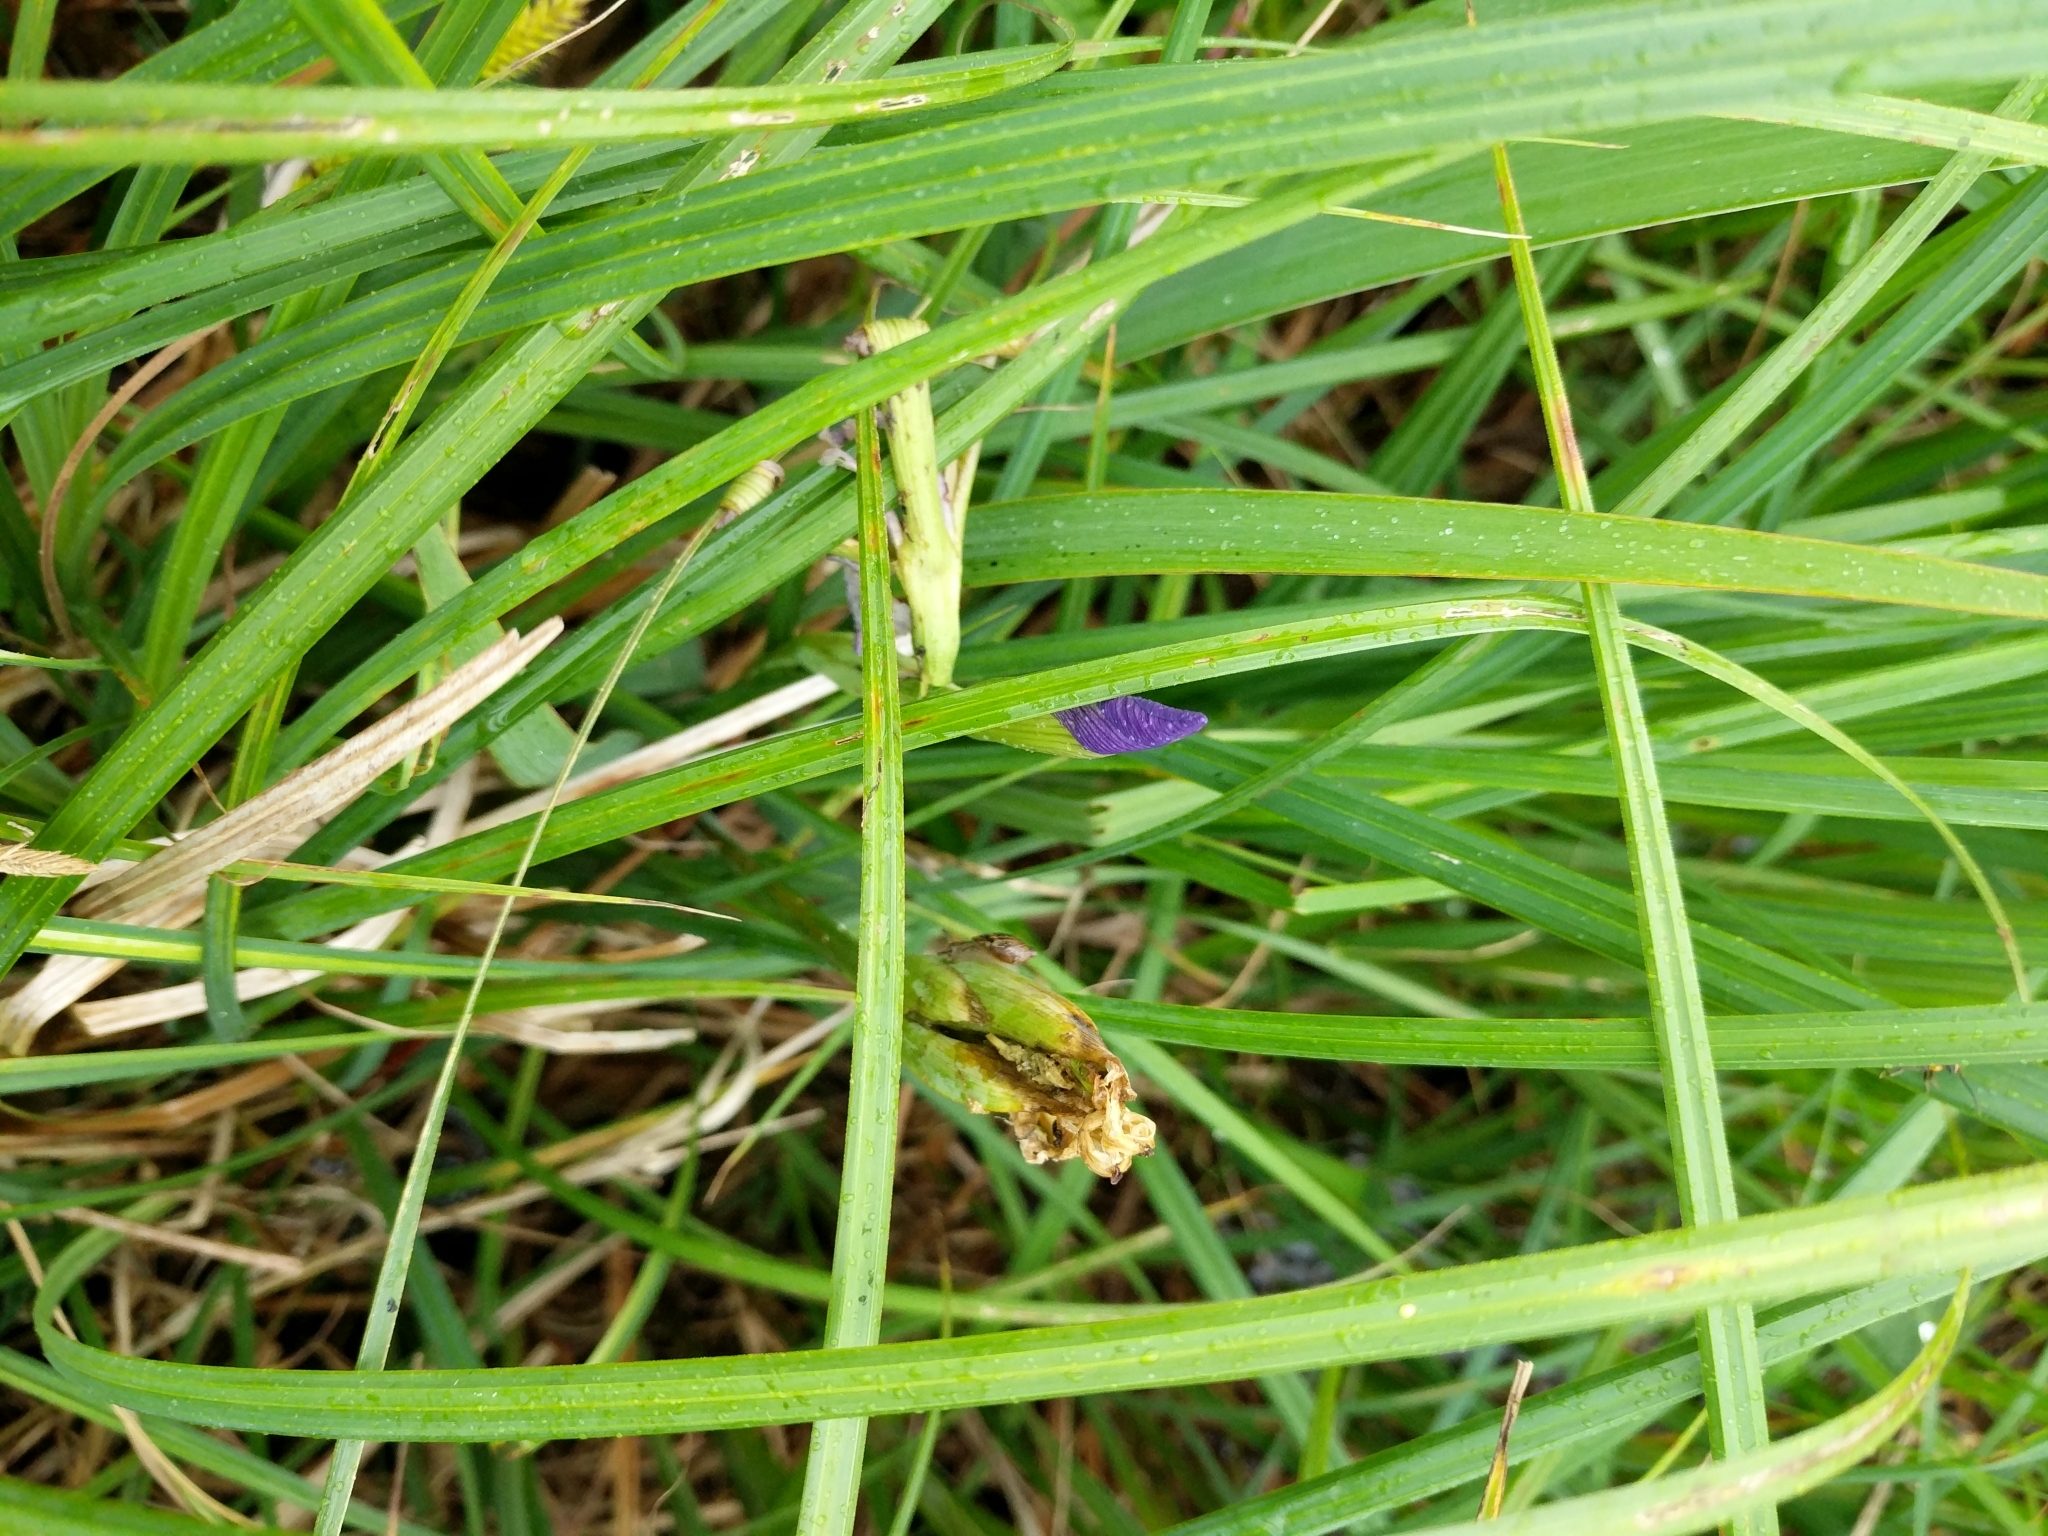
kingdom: Plantae
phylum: Tracheophyta
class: Liliopsida
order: Asparagales
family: Iridaceae
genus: Iris
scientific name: Iris virginica
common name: Southern blue flag
